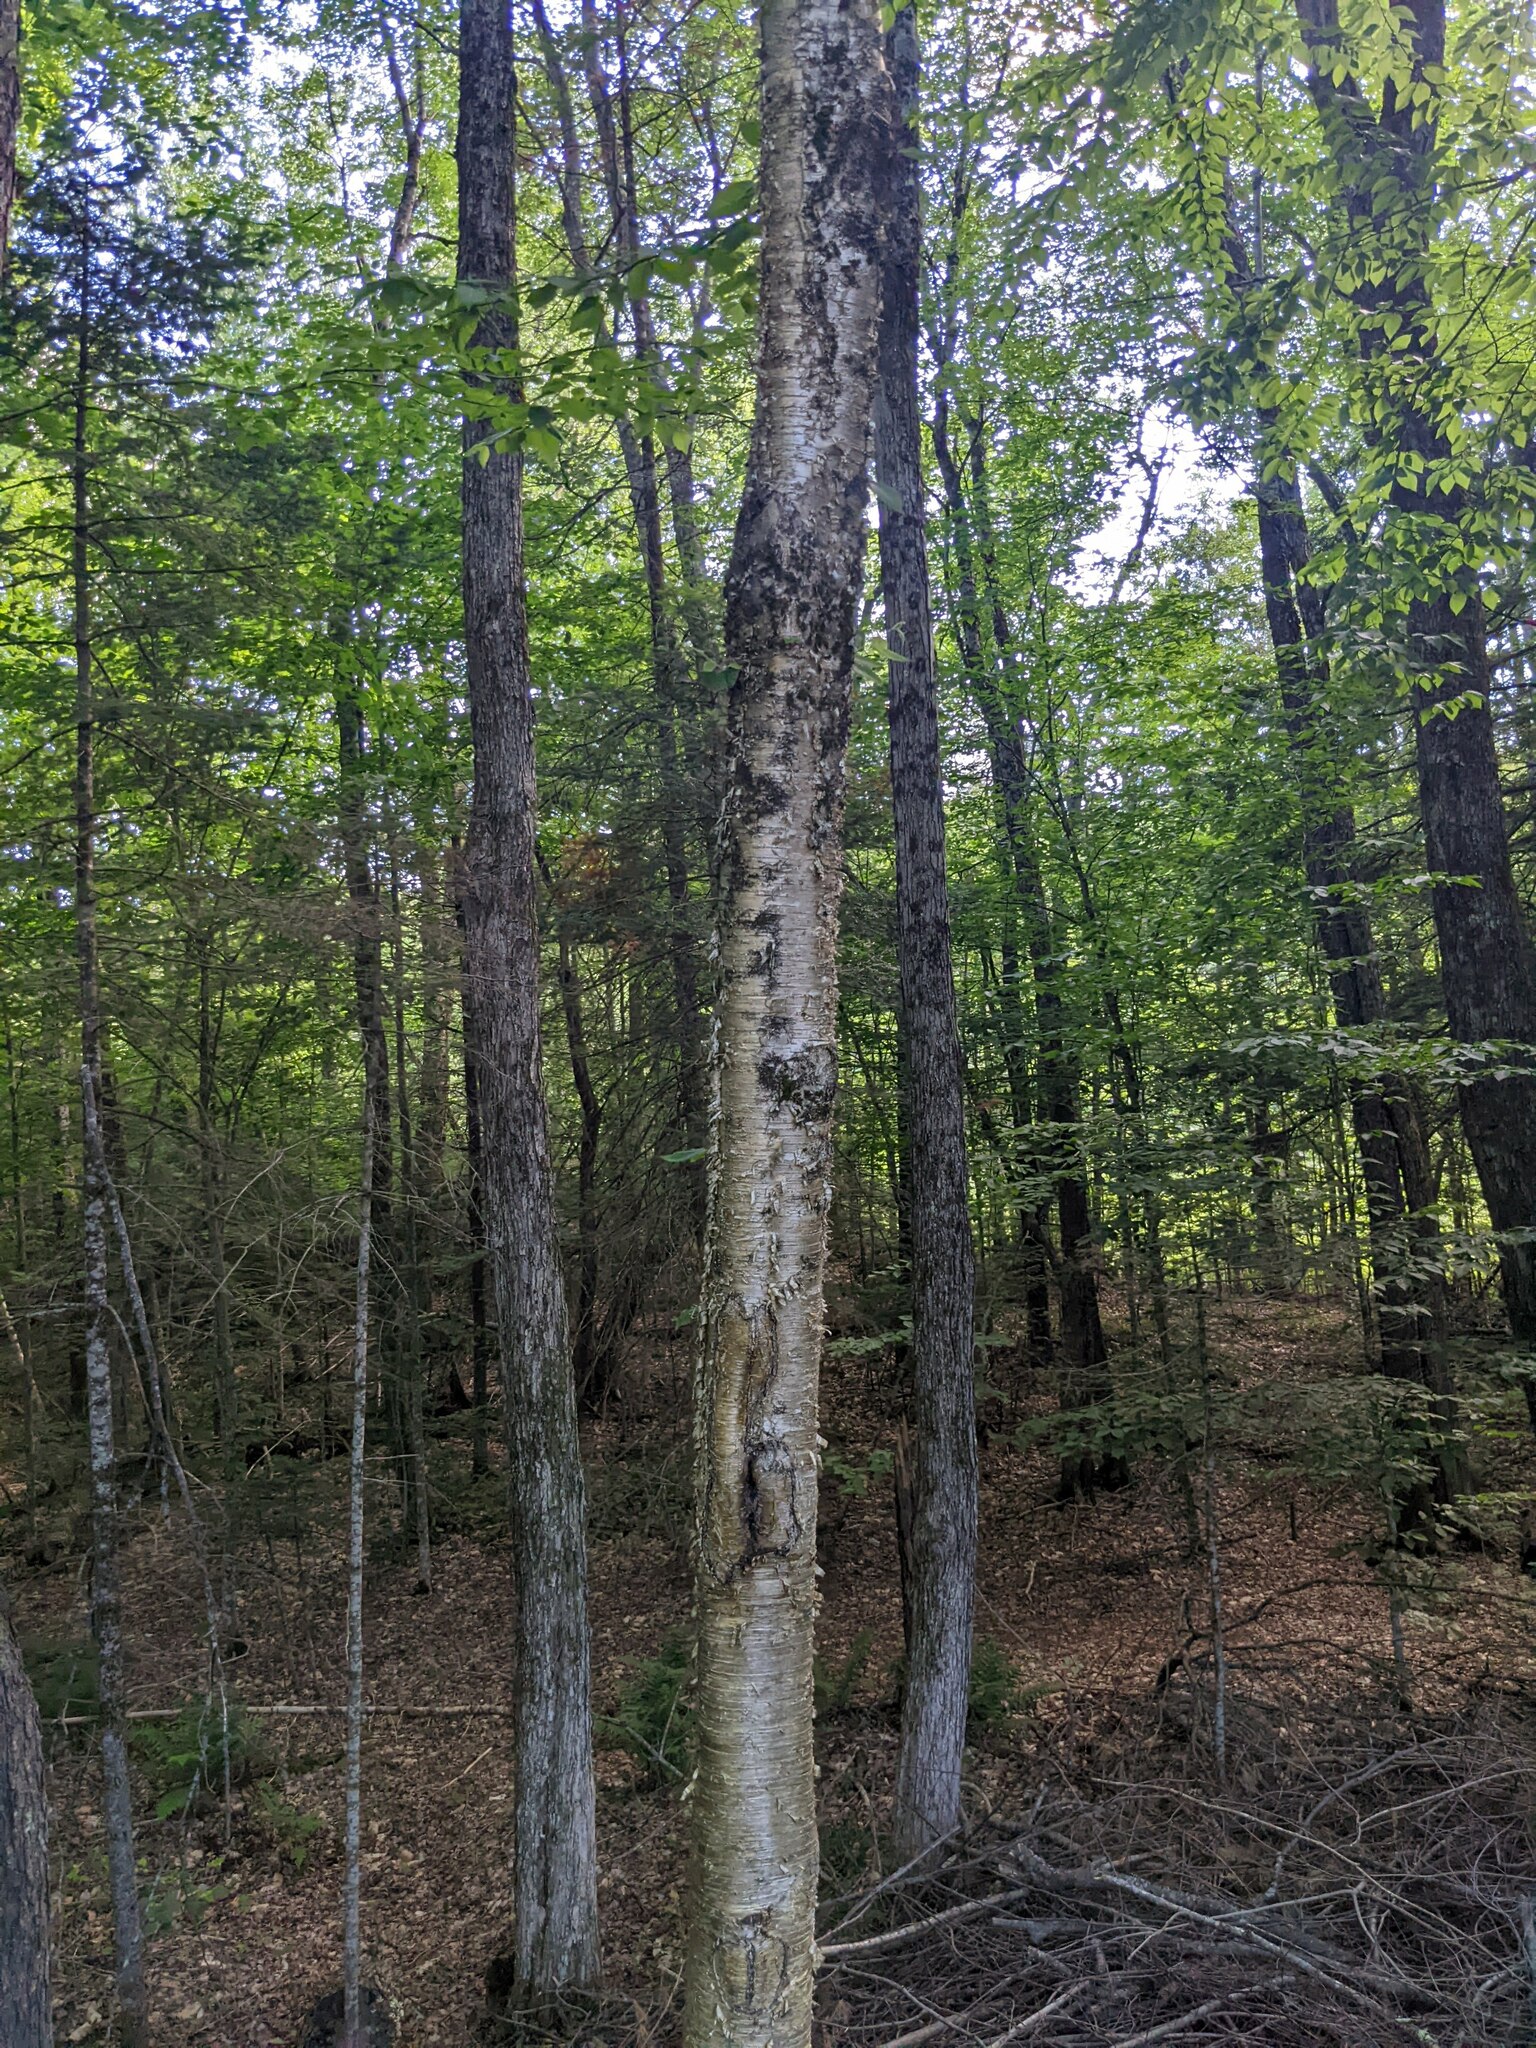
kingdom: Plantae
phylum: Tracheophyta
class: Magnoliopsida
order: Fagales
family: Betulaceae
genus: Betula
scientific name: Betula alleghaniensis
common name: Yellow birch
